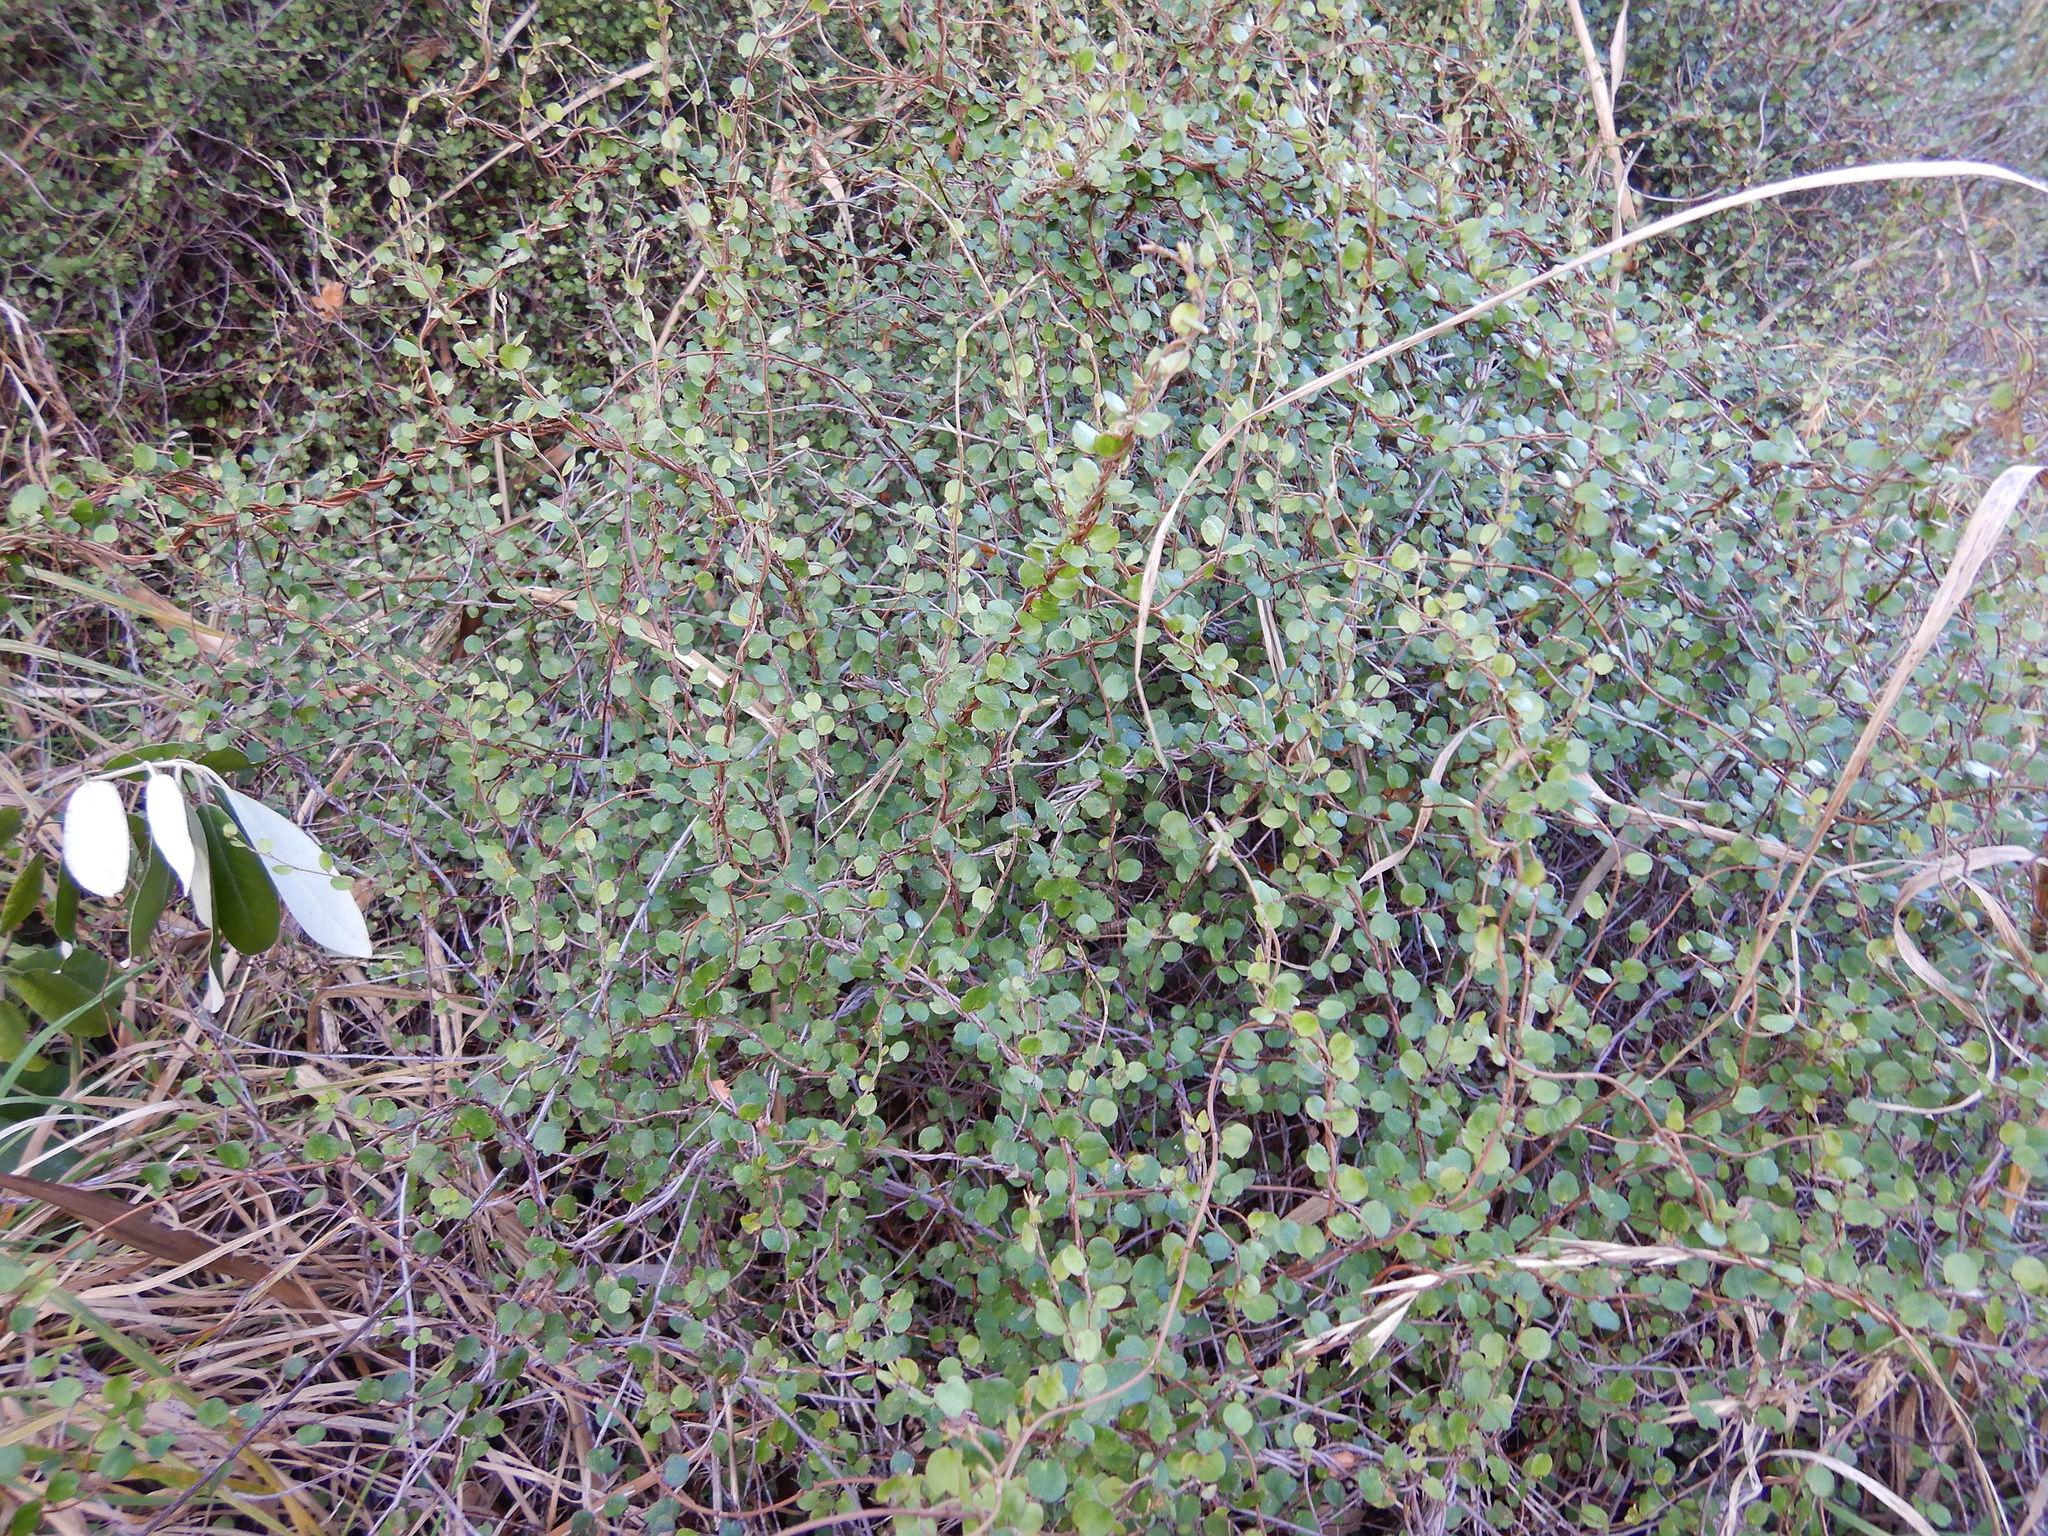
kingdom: Plantae
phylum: Tracheophyta
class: Magnoliopsida
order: Caryophyllales
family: Polygonaceae
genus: Muehlenbeckia
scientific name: Muehlenbeckia complexa
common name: Wireplant
